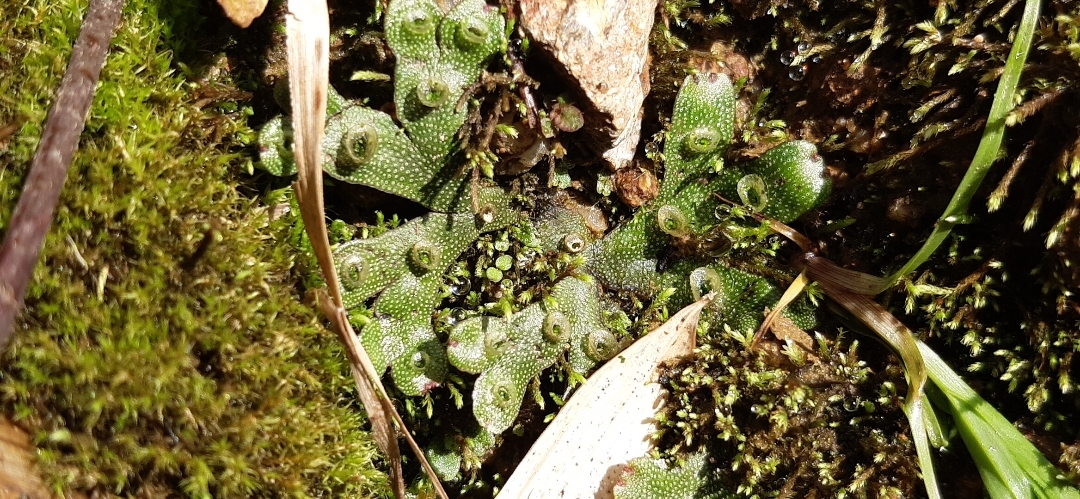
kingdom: Plantae
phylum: Marchantiophyta
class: Marchantiopsida
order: Marchantiales
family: Marchantiaceae
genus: Marchantia
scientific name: Marchantia polymorpha
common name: Common liverwort
